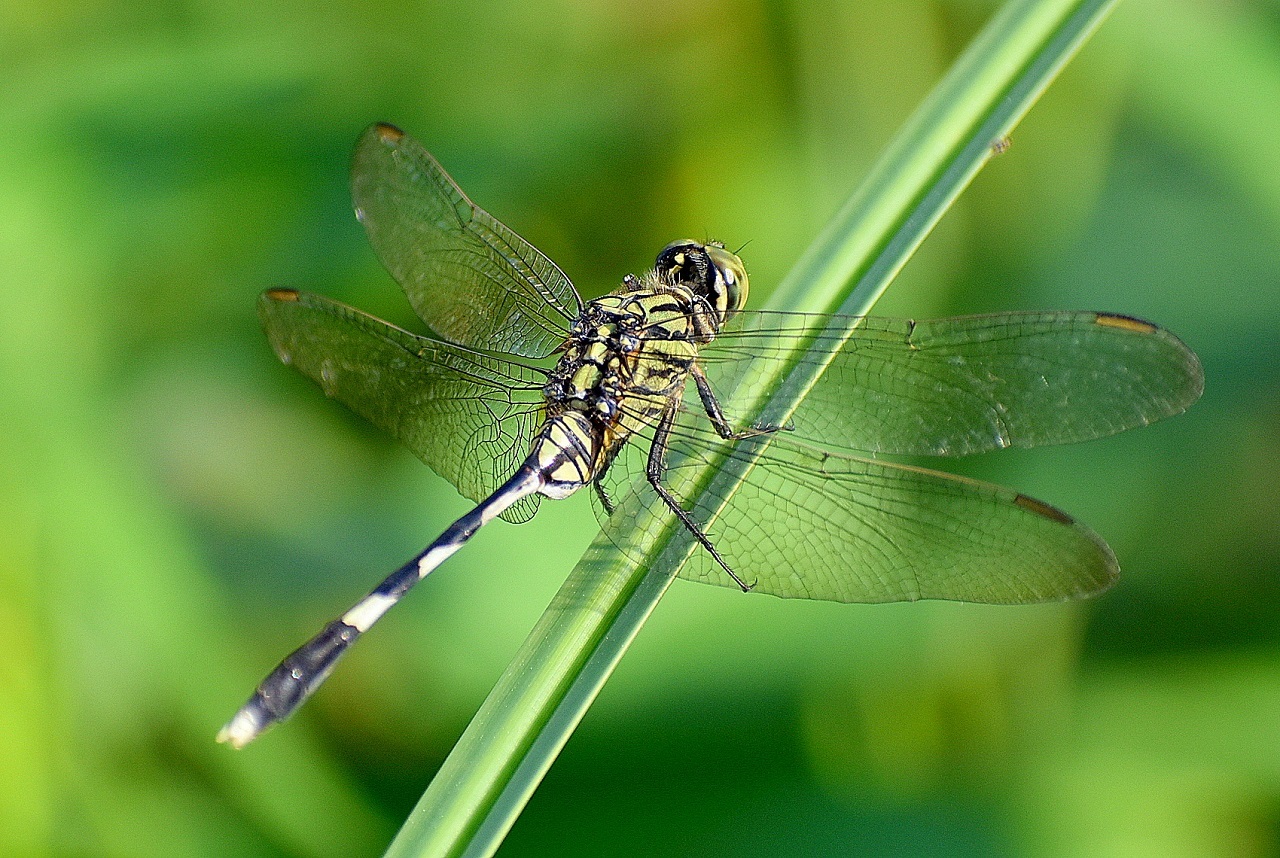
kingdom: Animalia
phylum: Arthropoda
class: Insecta
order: Odonata
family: Libellulidae
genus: Orthetrum
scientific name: Orthetrum sabina
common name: Slender skimmer
